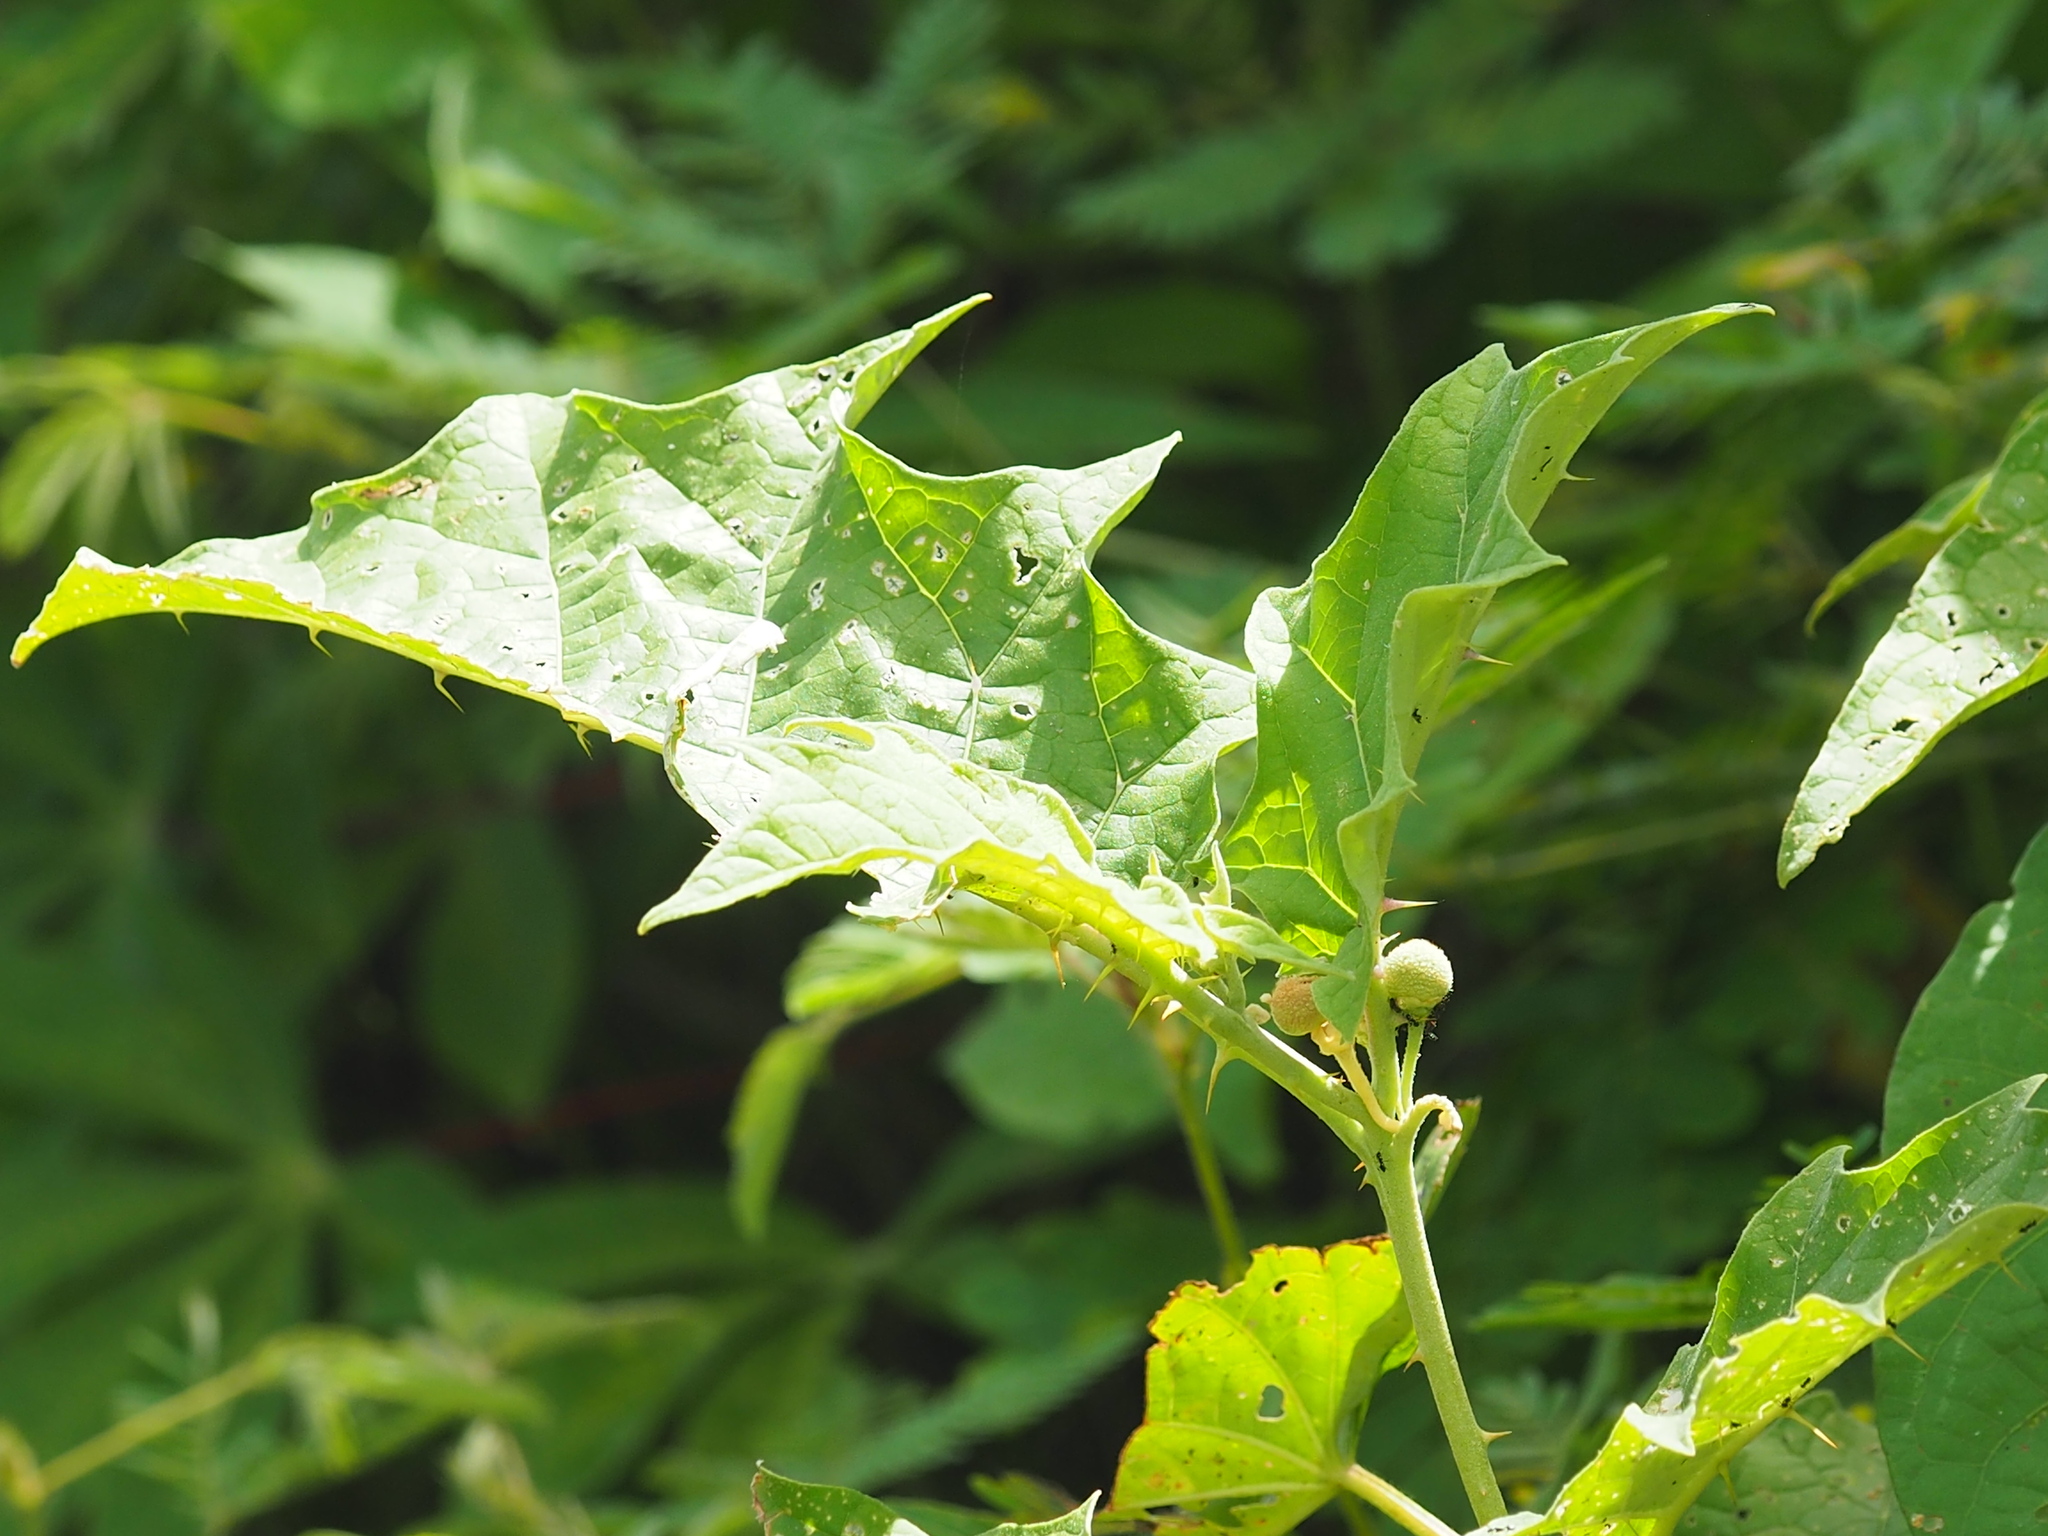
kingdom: Plantae
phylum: Tracheophyta
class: Magnoliopsida
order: Solanales
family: Solanaceae
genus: Solanum
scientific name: Solanum
